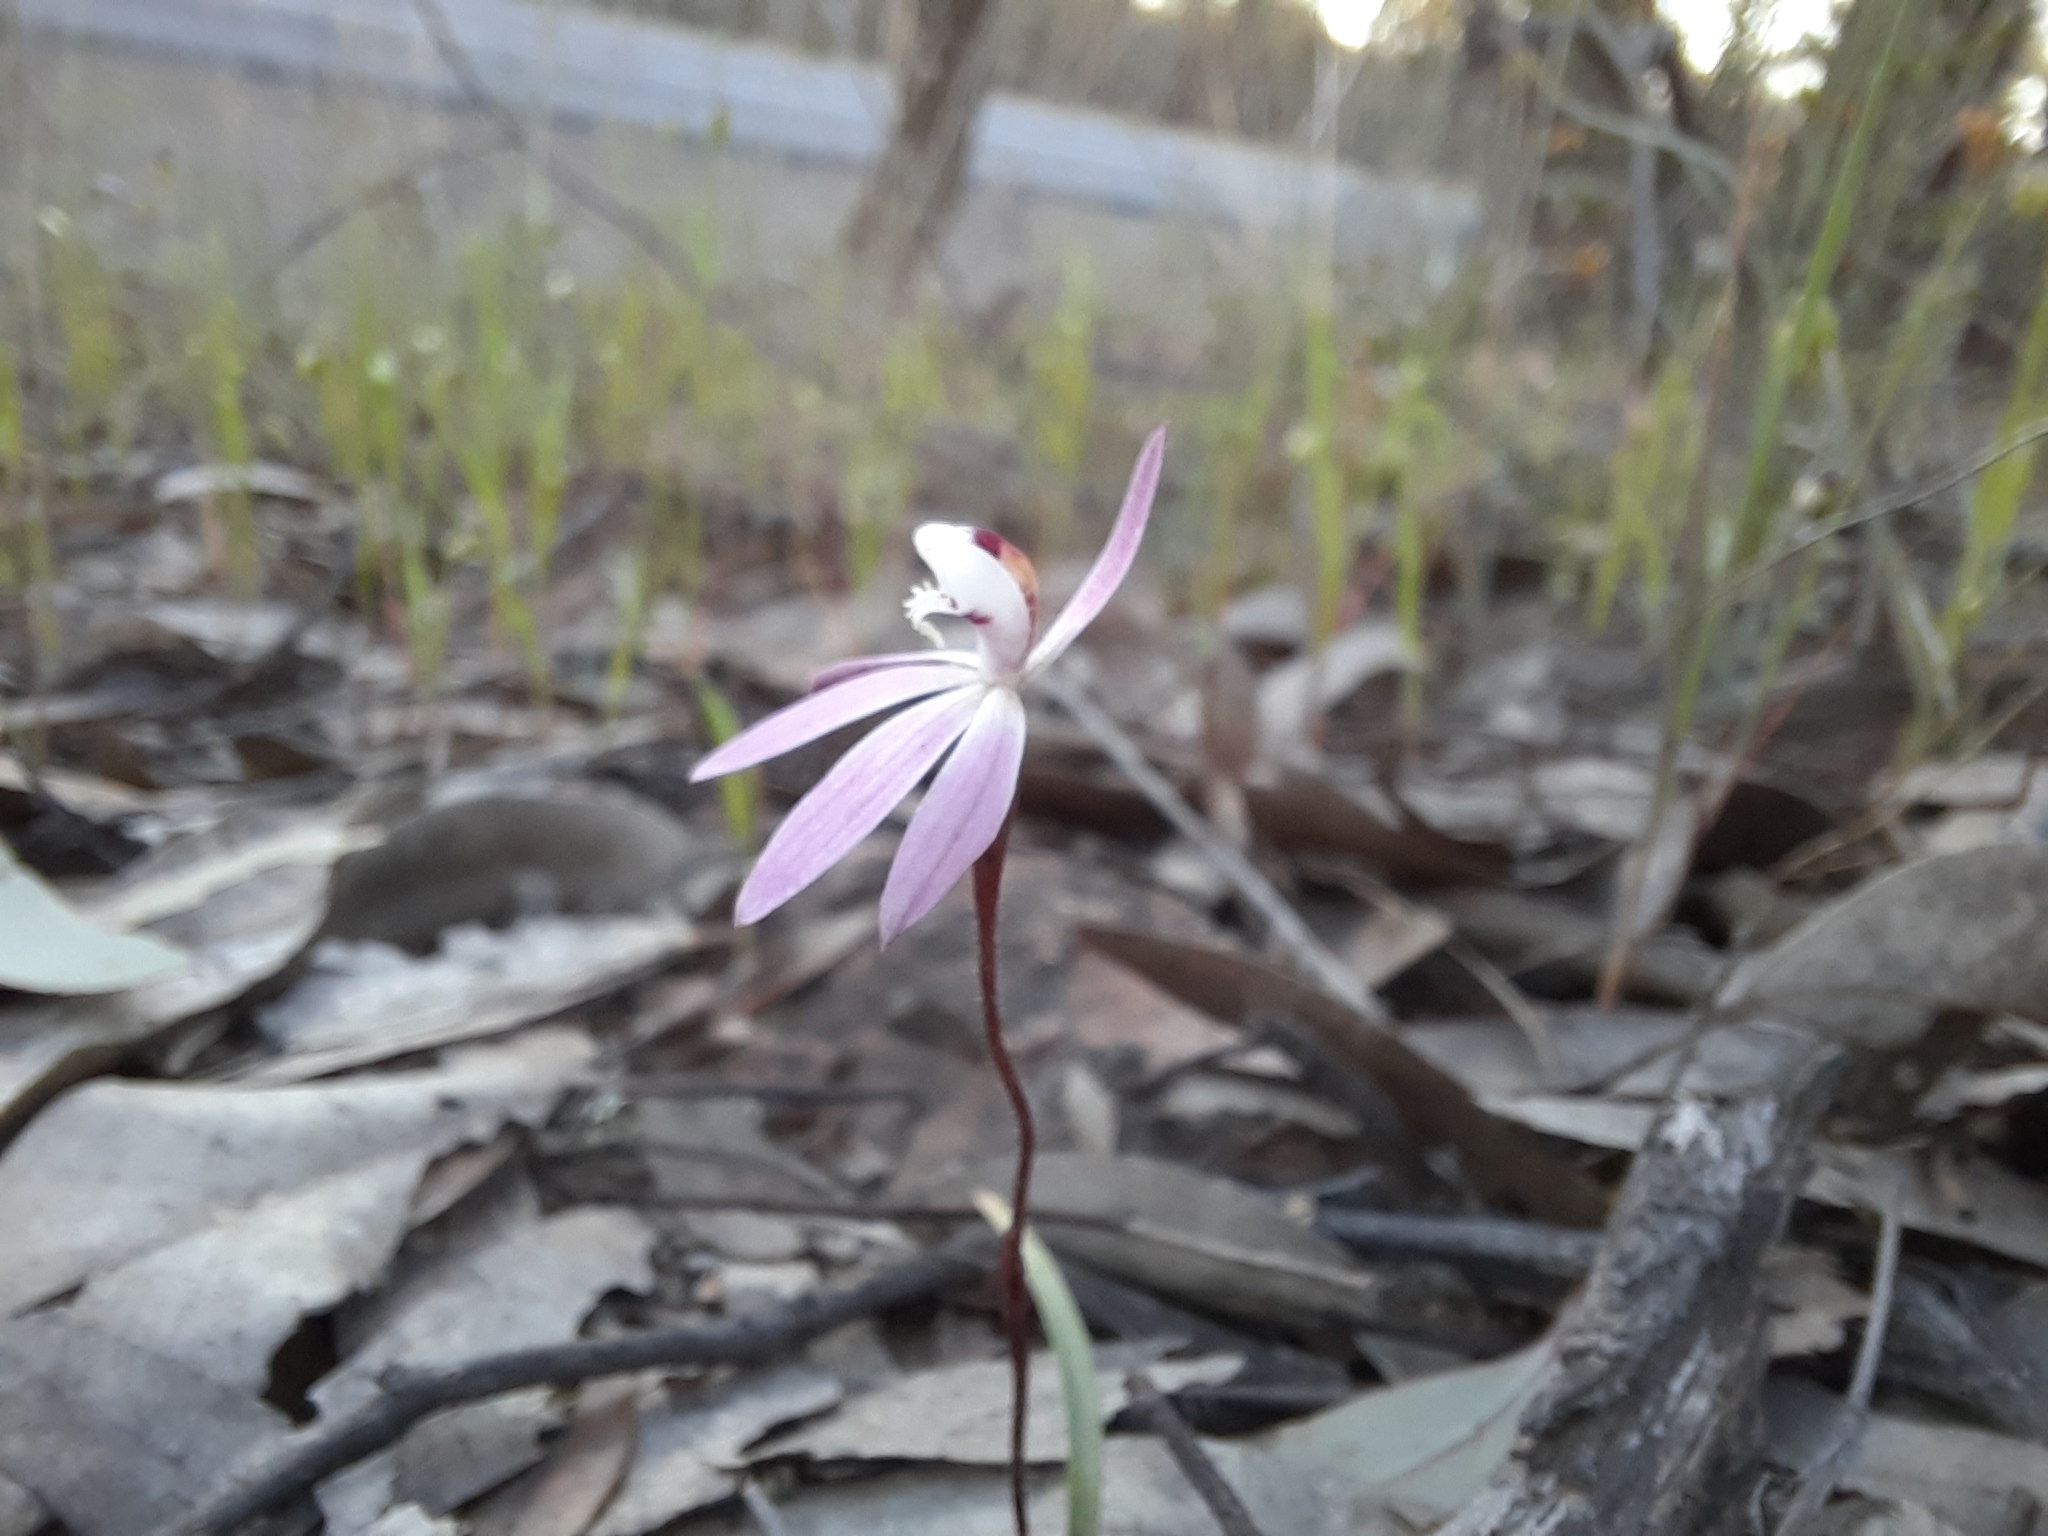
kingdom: Plantae
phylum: Tracheophyta
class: Liliopsida
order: Asparagales
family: Orchidaceae
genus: Caladenia
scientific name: Caladenia fuscata
